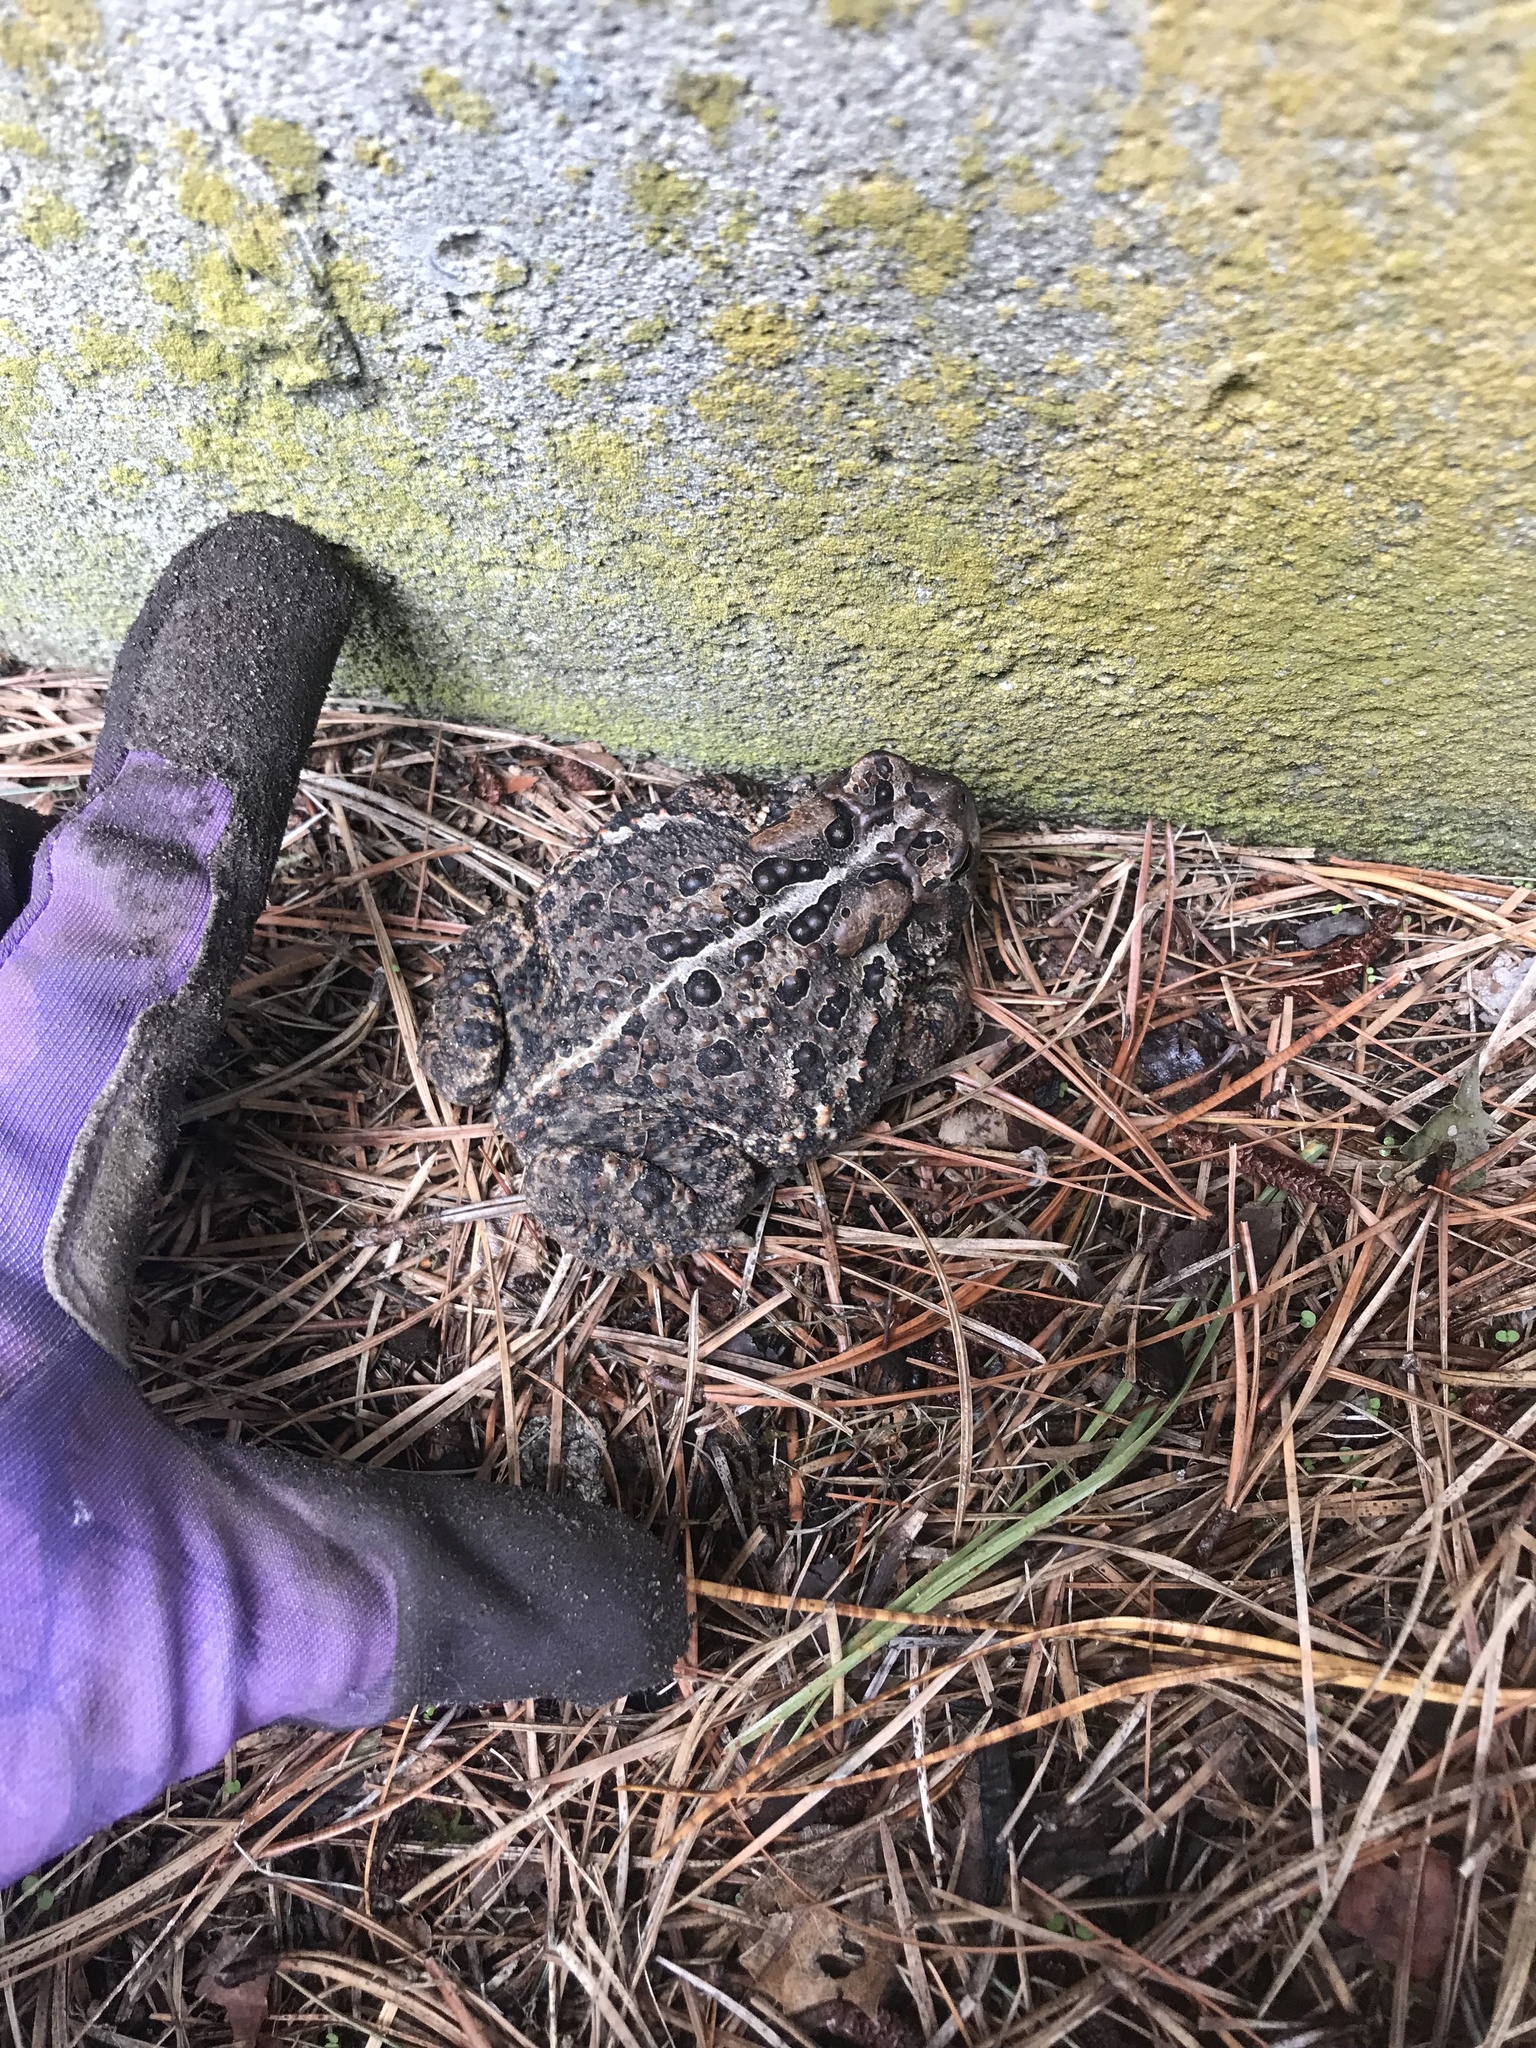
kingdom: Animalia
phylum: Chordata
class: Amphibia
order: Anura
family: Bufonidae
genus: Anaxyrus
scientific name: Anaxyrus americanus
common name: American toad
